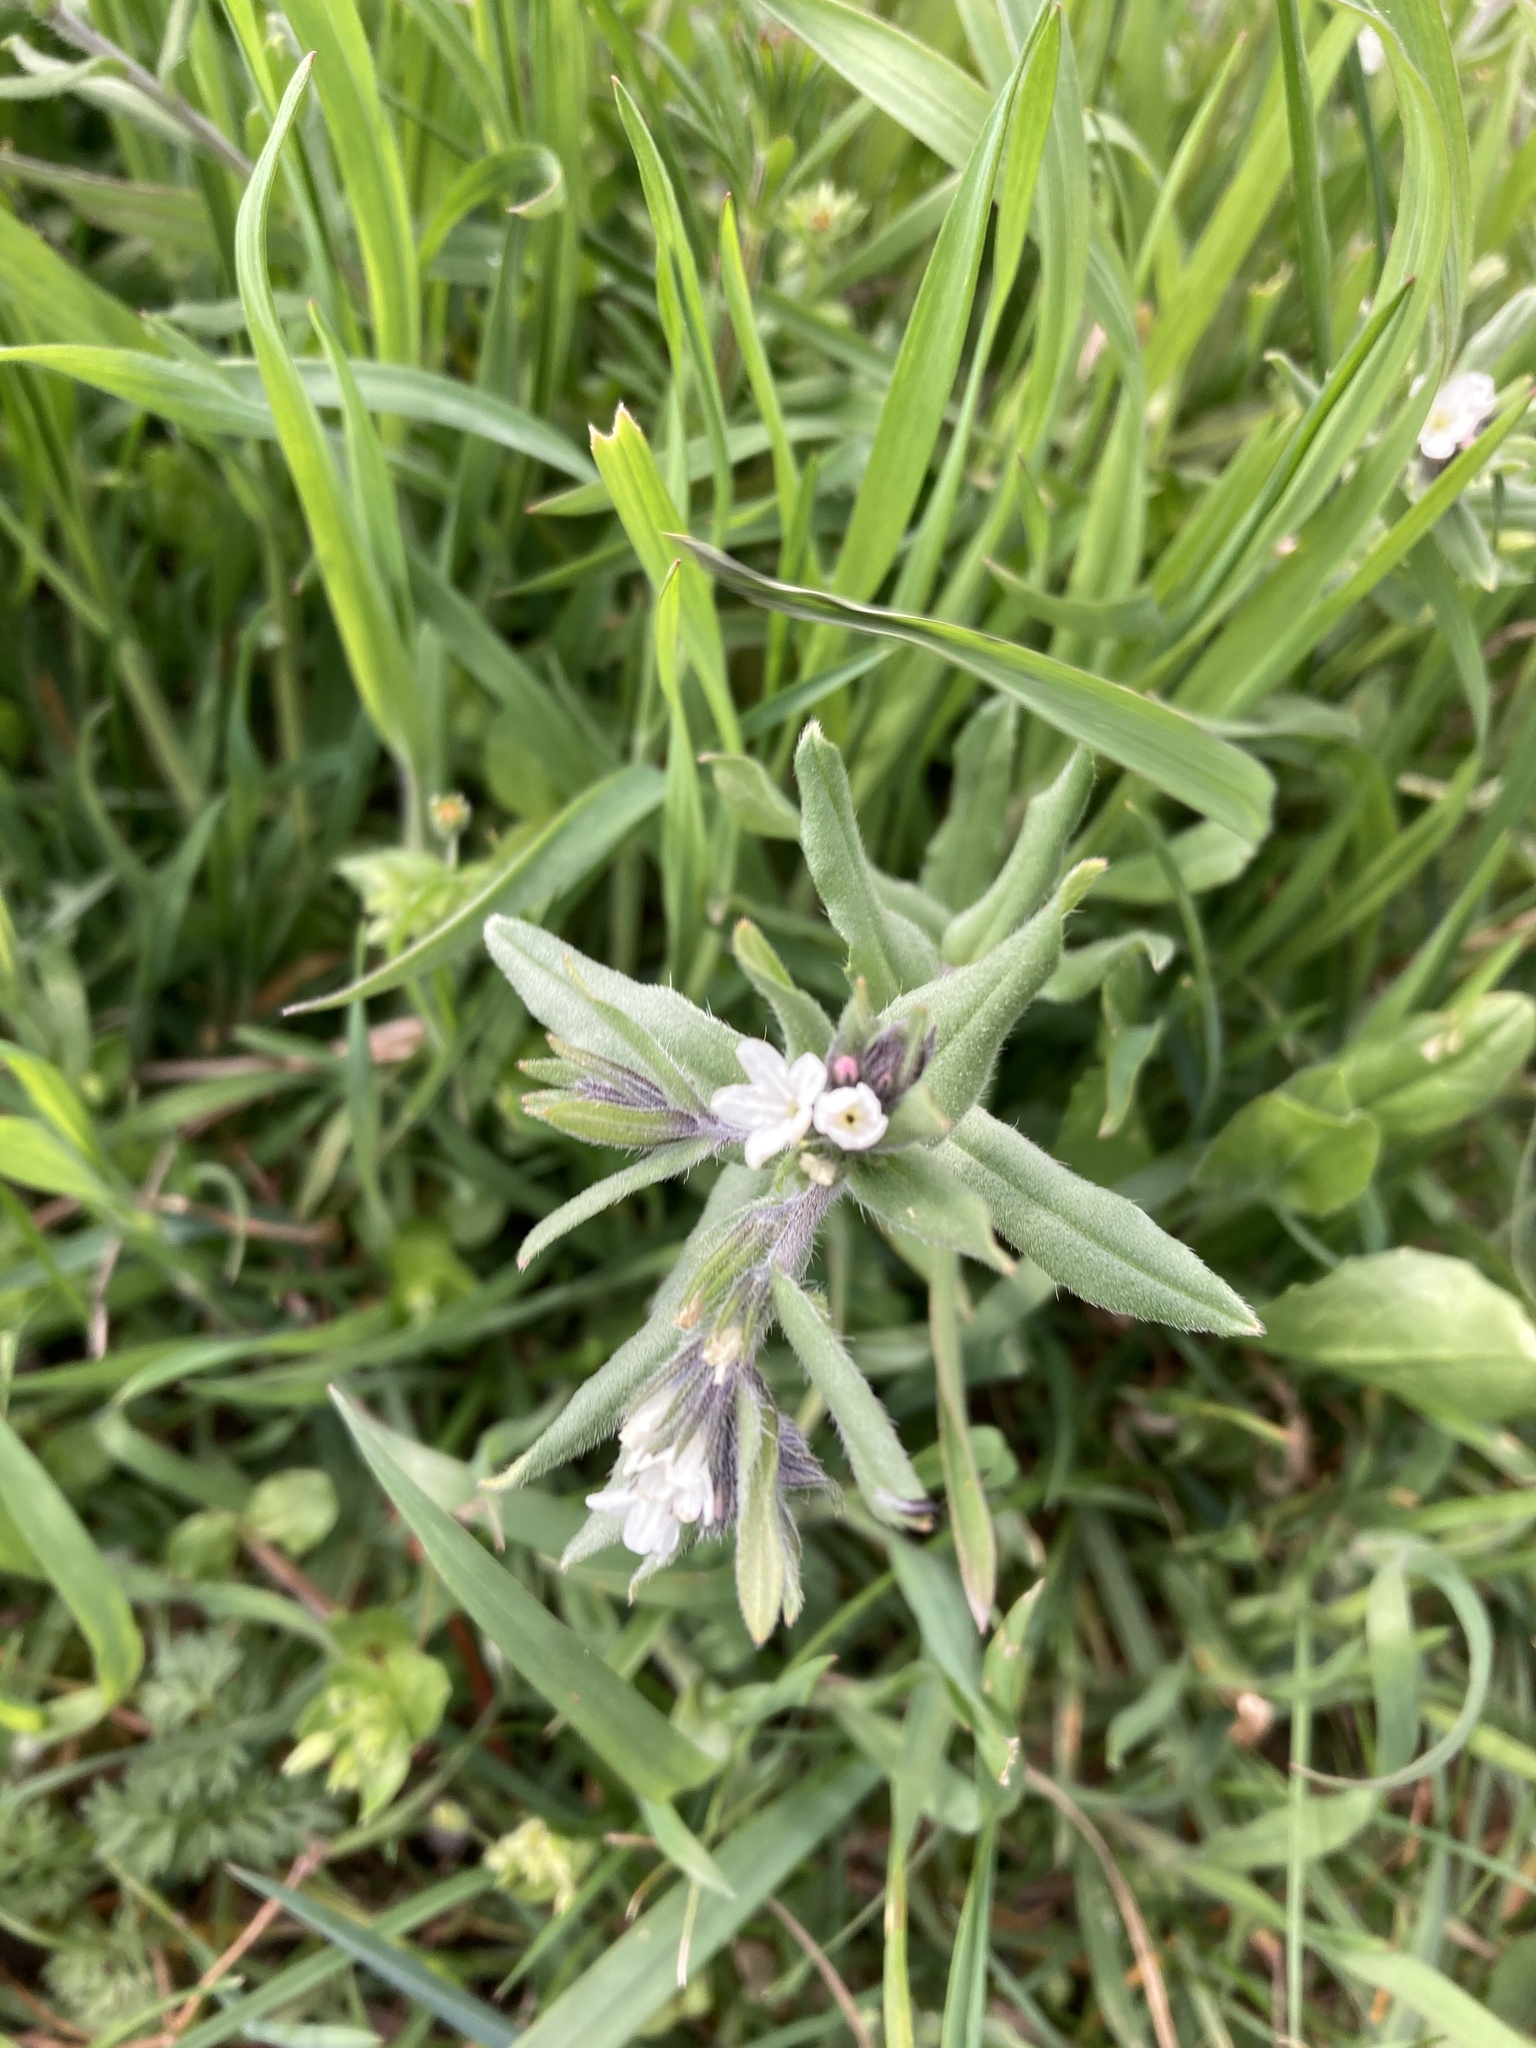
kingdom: Plantae
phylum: Tracheophyta
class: Magnoliopsida
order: Boraginales
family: Boraginaceae
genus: Buglossoides
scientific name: Buglossoides arvensis
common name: Corn gromwell
